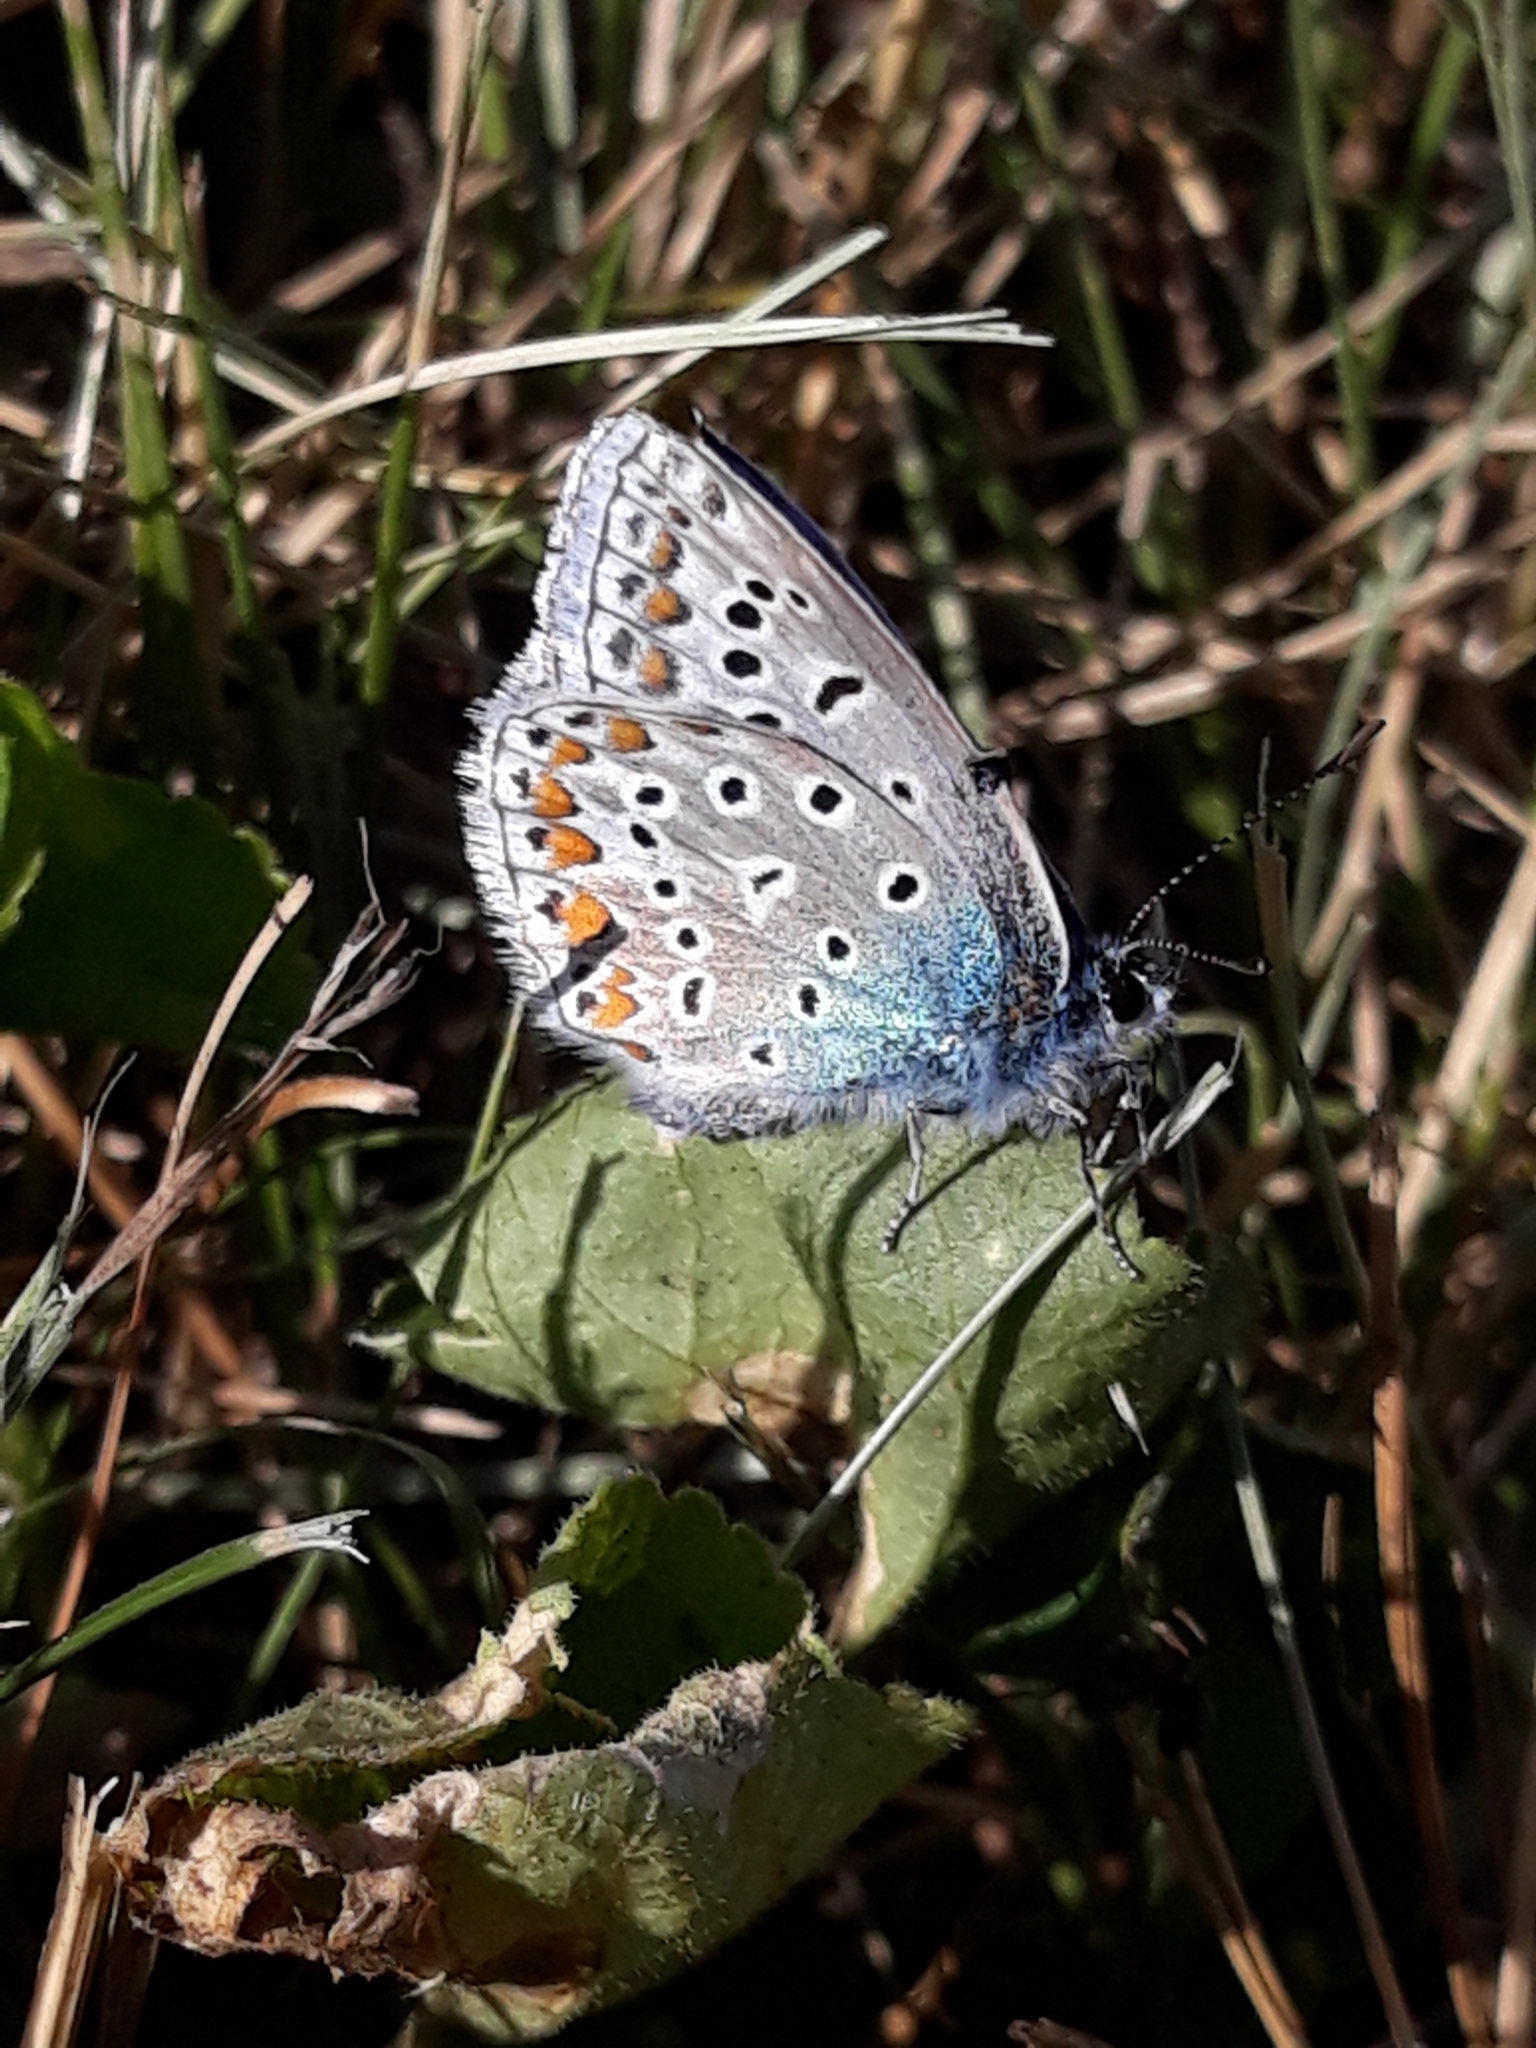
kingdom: Animalia
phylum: Arthropoda
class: Insecta
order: Lepidoptera
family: Lycaenidae
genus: Polyommatus
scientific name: Polyommatus icarus
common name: Common blue
